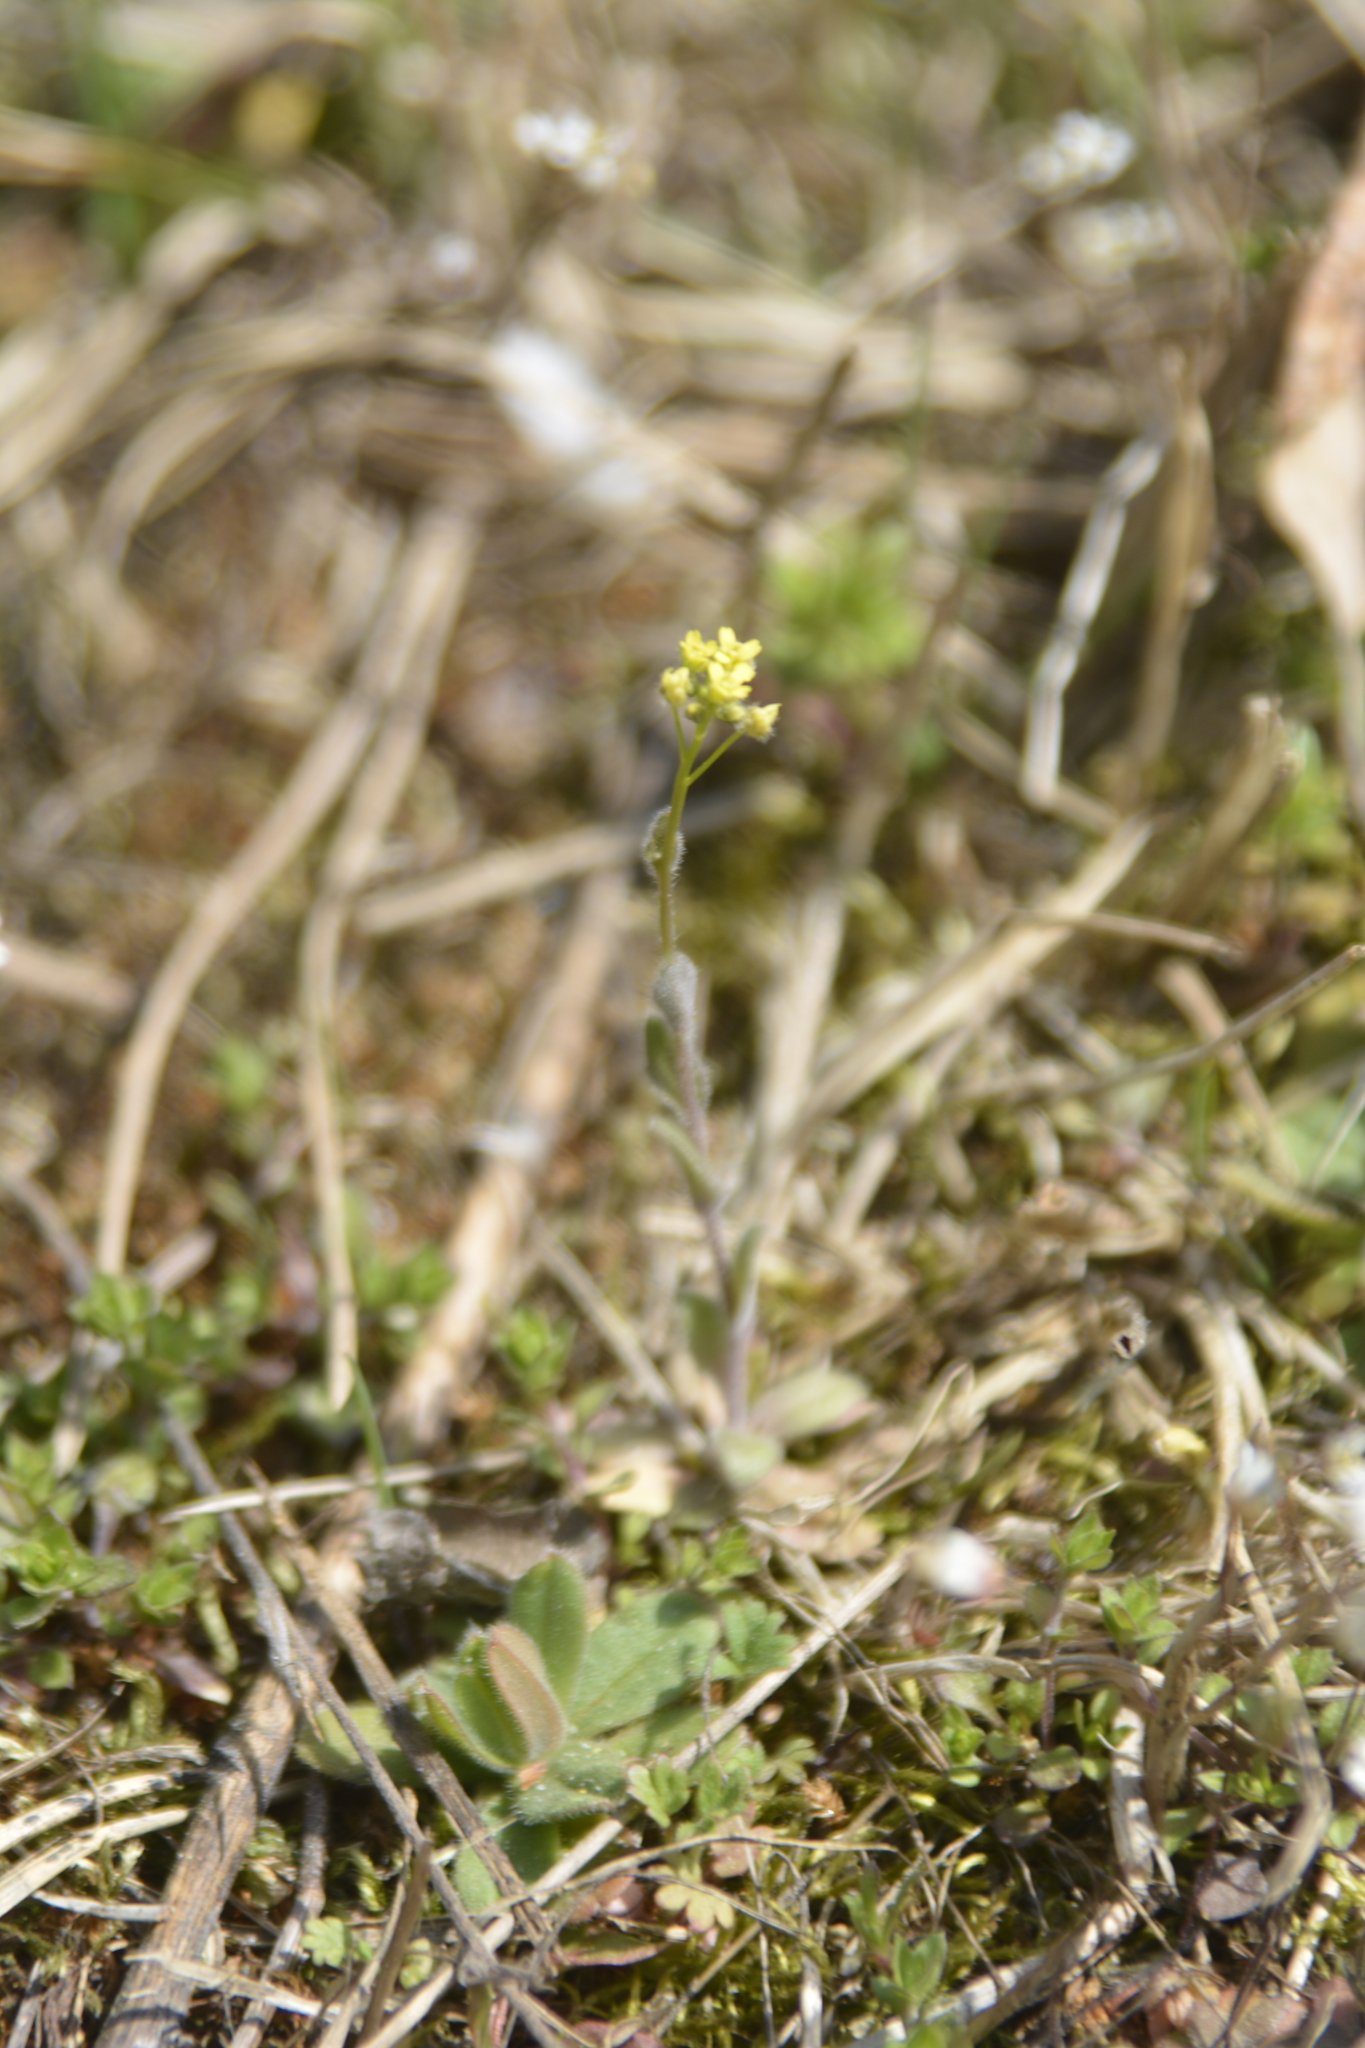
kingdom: Plantae
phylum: Tracheophyta
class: Magnoliopsida
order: Brassicales
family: Brassicaceae
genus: Draba
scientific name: Draba nemorosa
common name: Wood whitlow-grass
